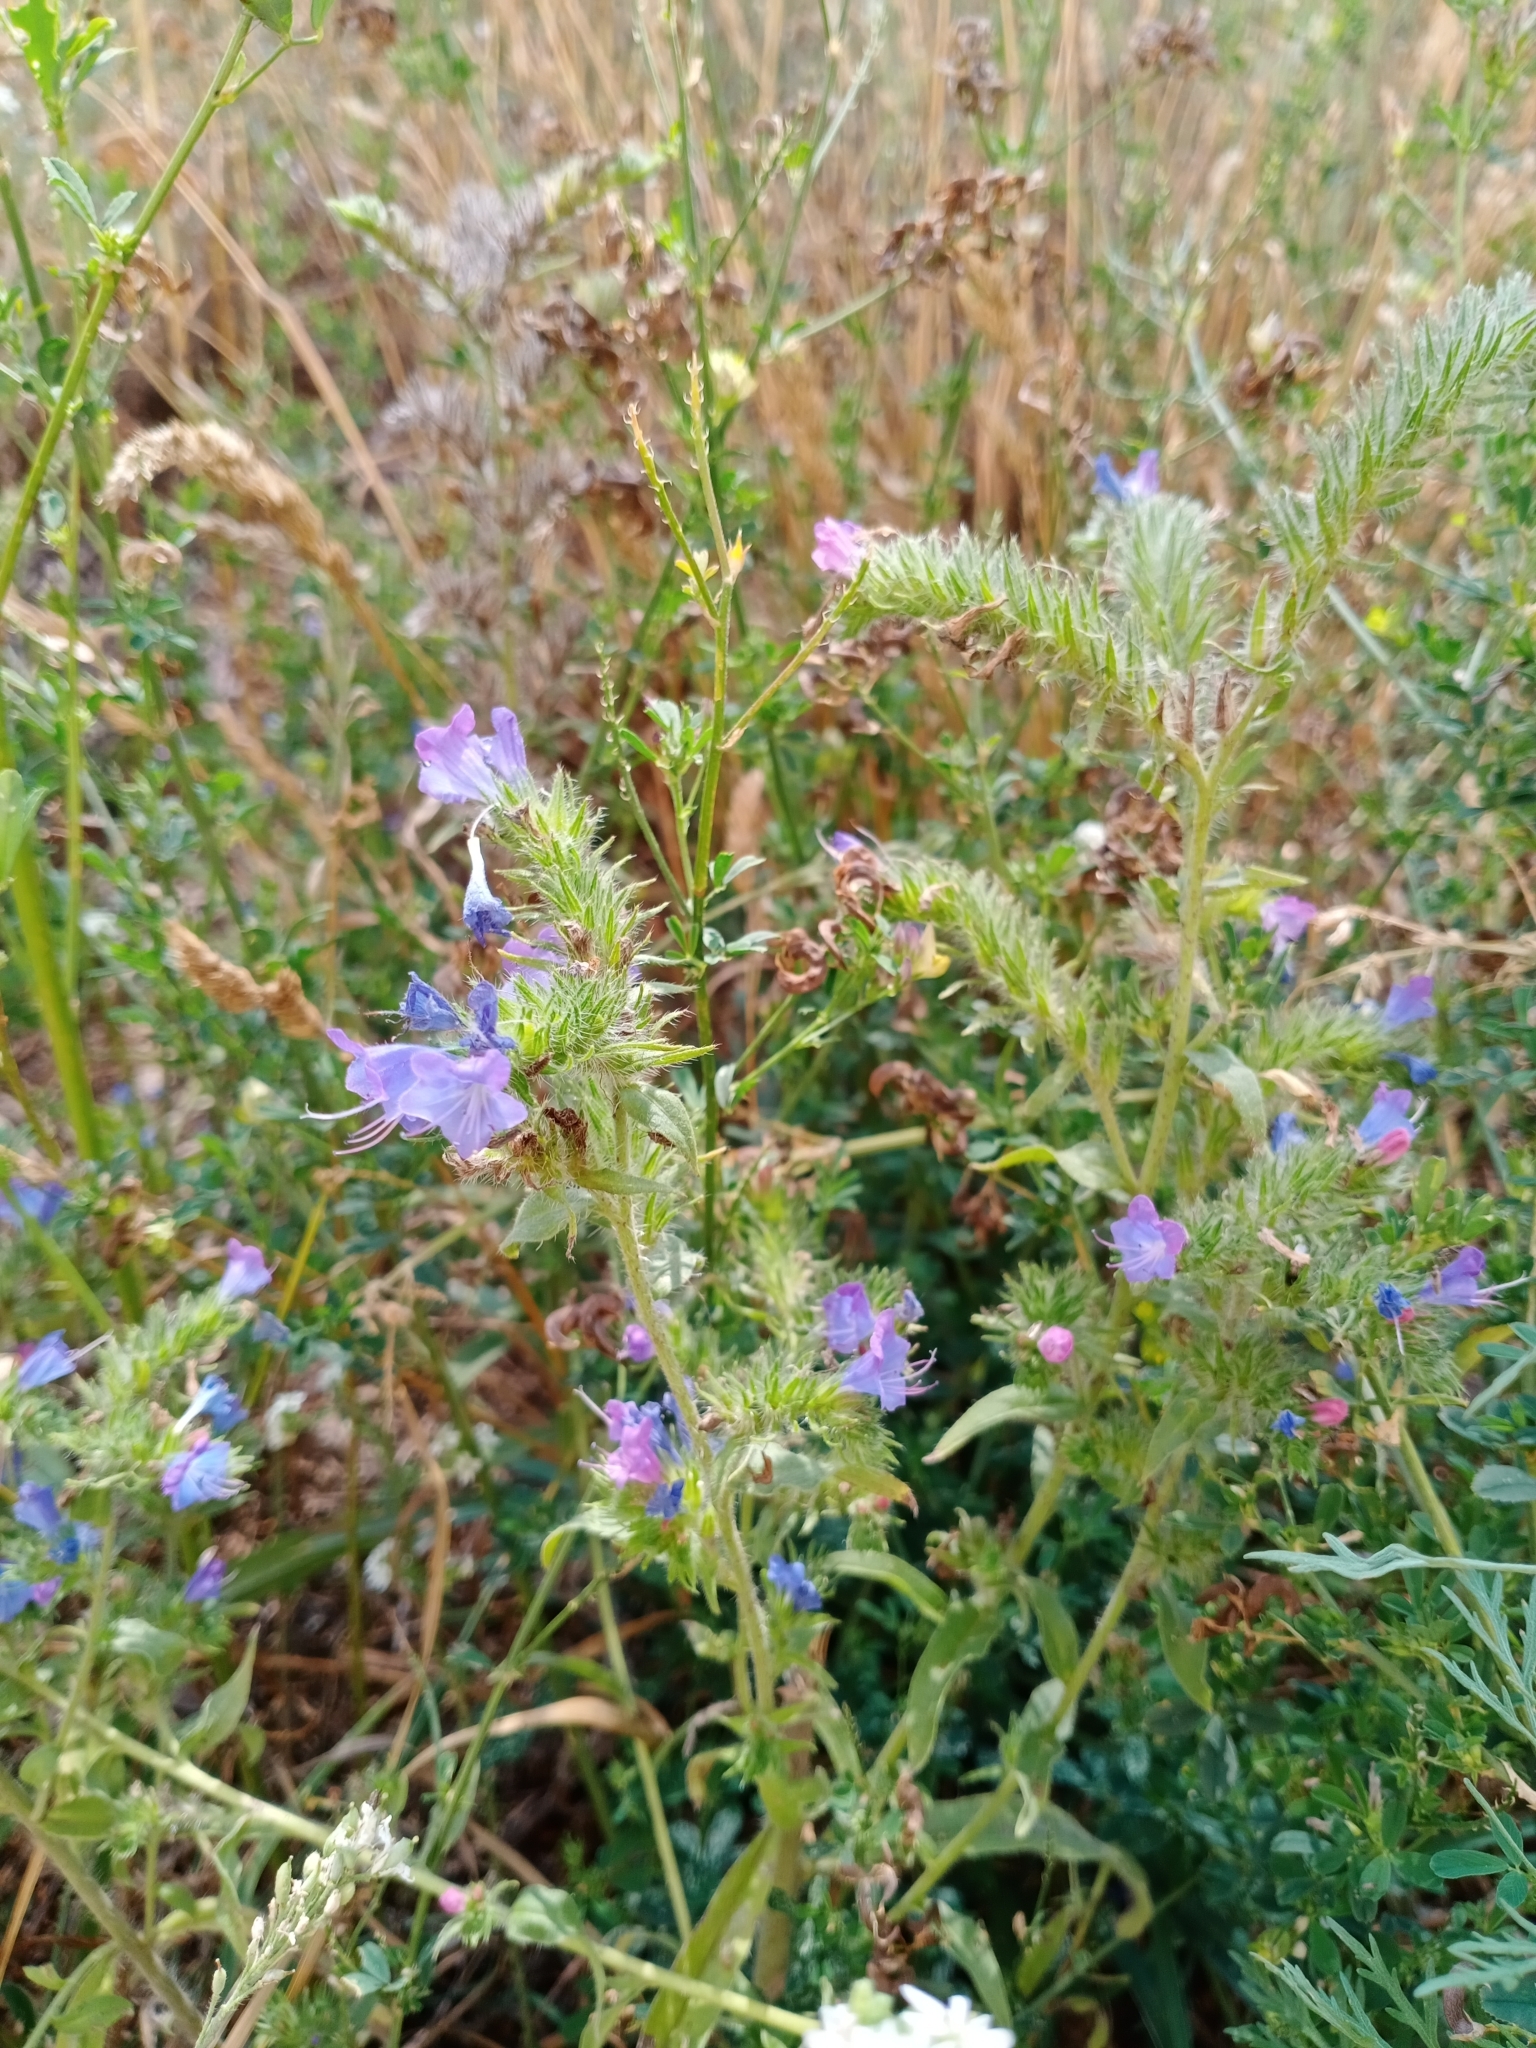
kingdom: Plantae
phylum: Tracheophyta
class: Magnoliopsida
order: Boraginales
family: Boraginaceae
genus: Echium
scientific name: Echium vulgare
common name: Common viper's bugloss
